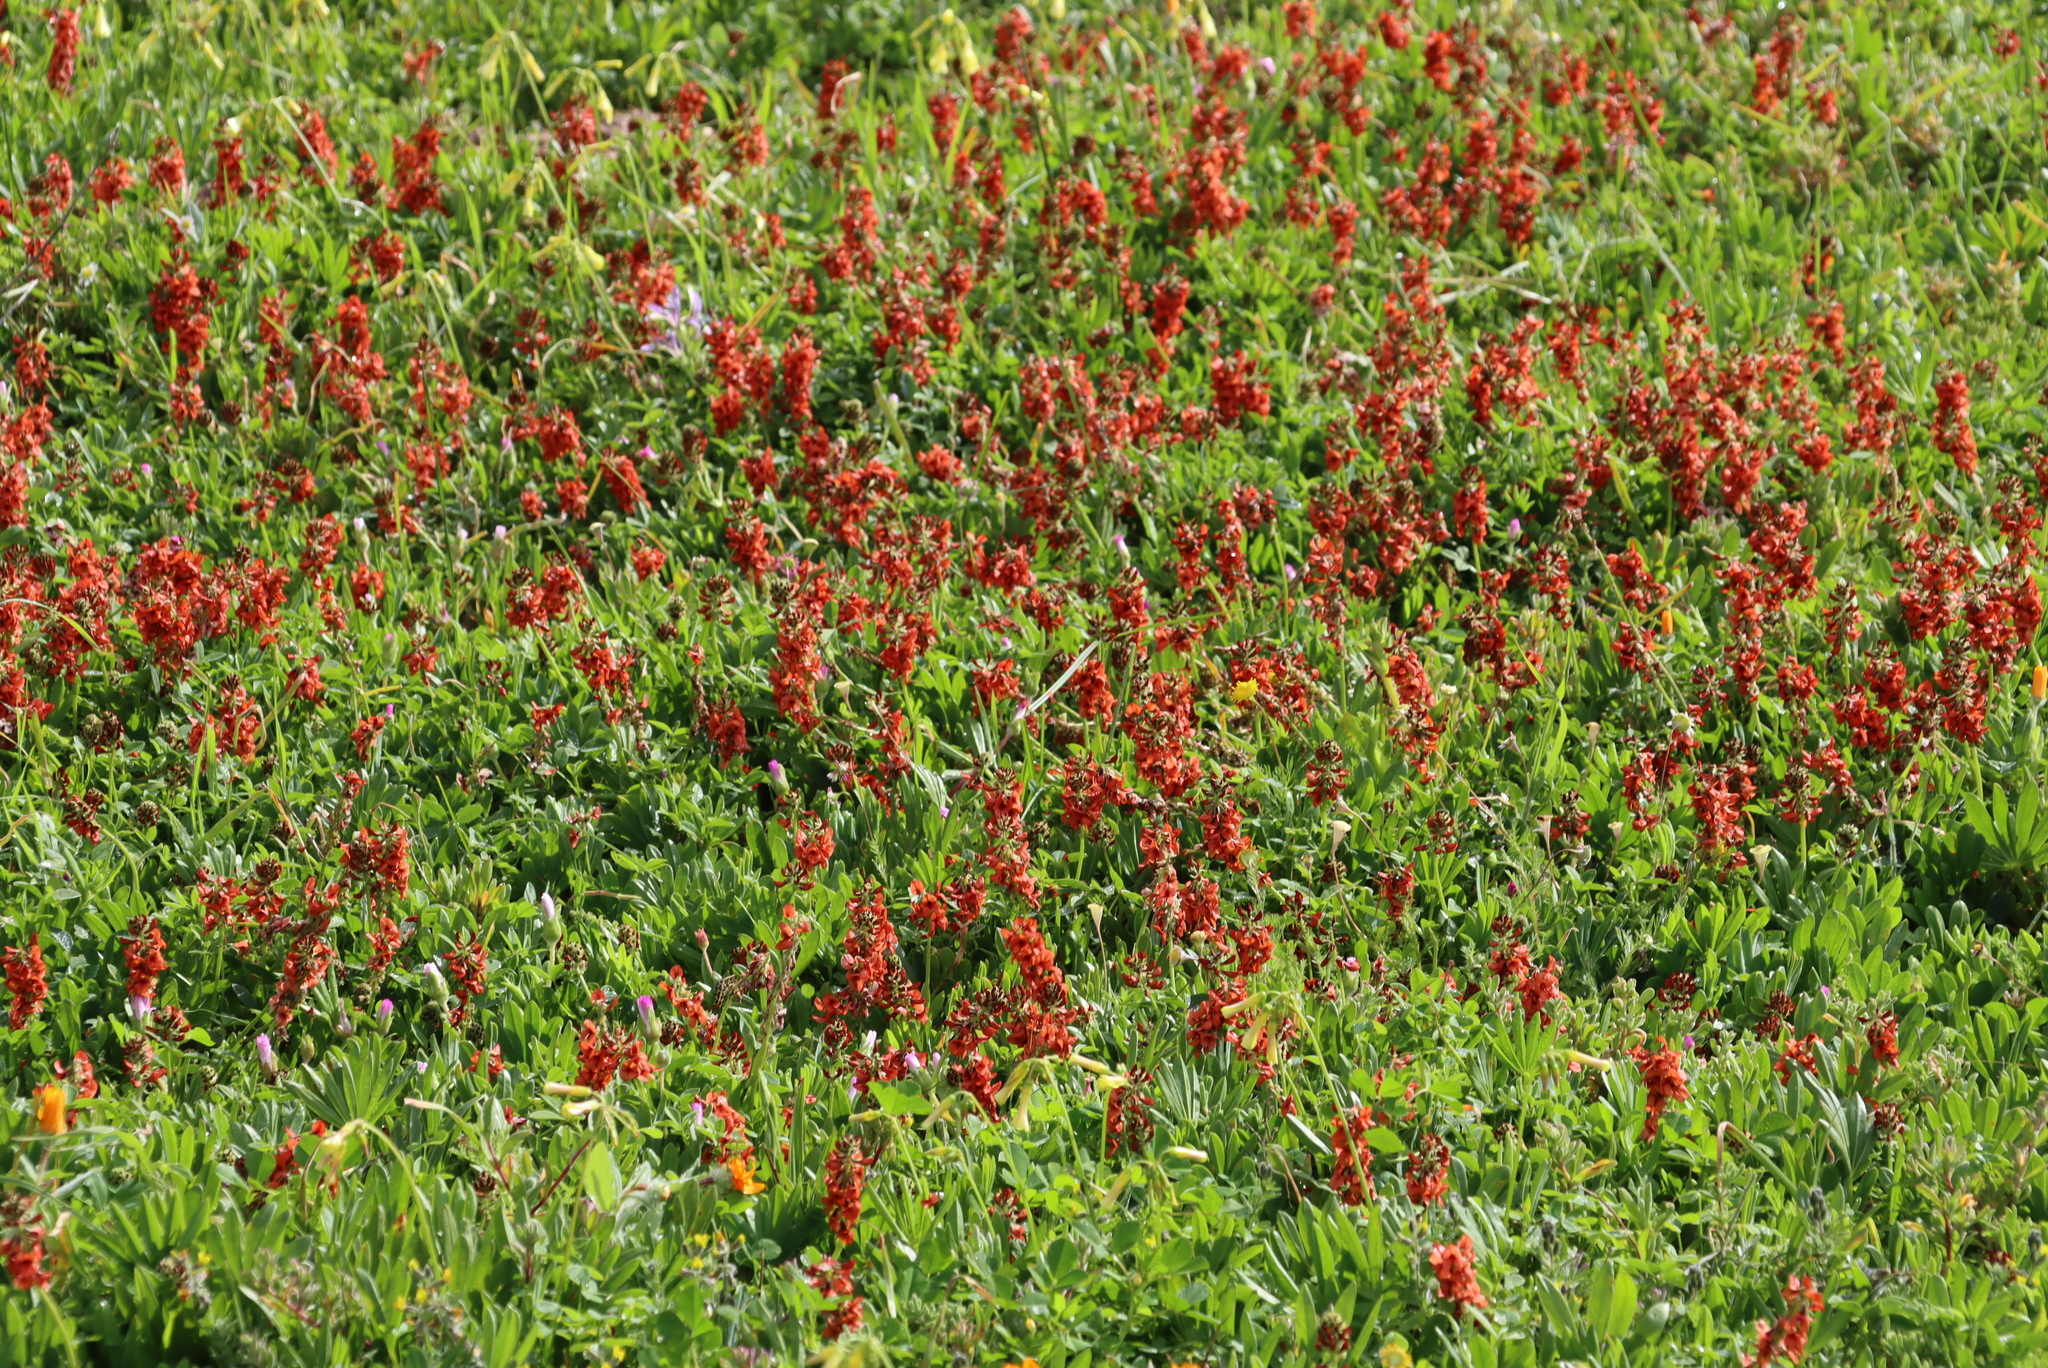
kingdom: Plantae
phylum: Tracheophyta
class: Magnoliopsida
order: Fabales
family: Fabaceae
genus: Indigofera
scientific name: Indigofera
